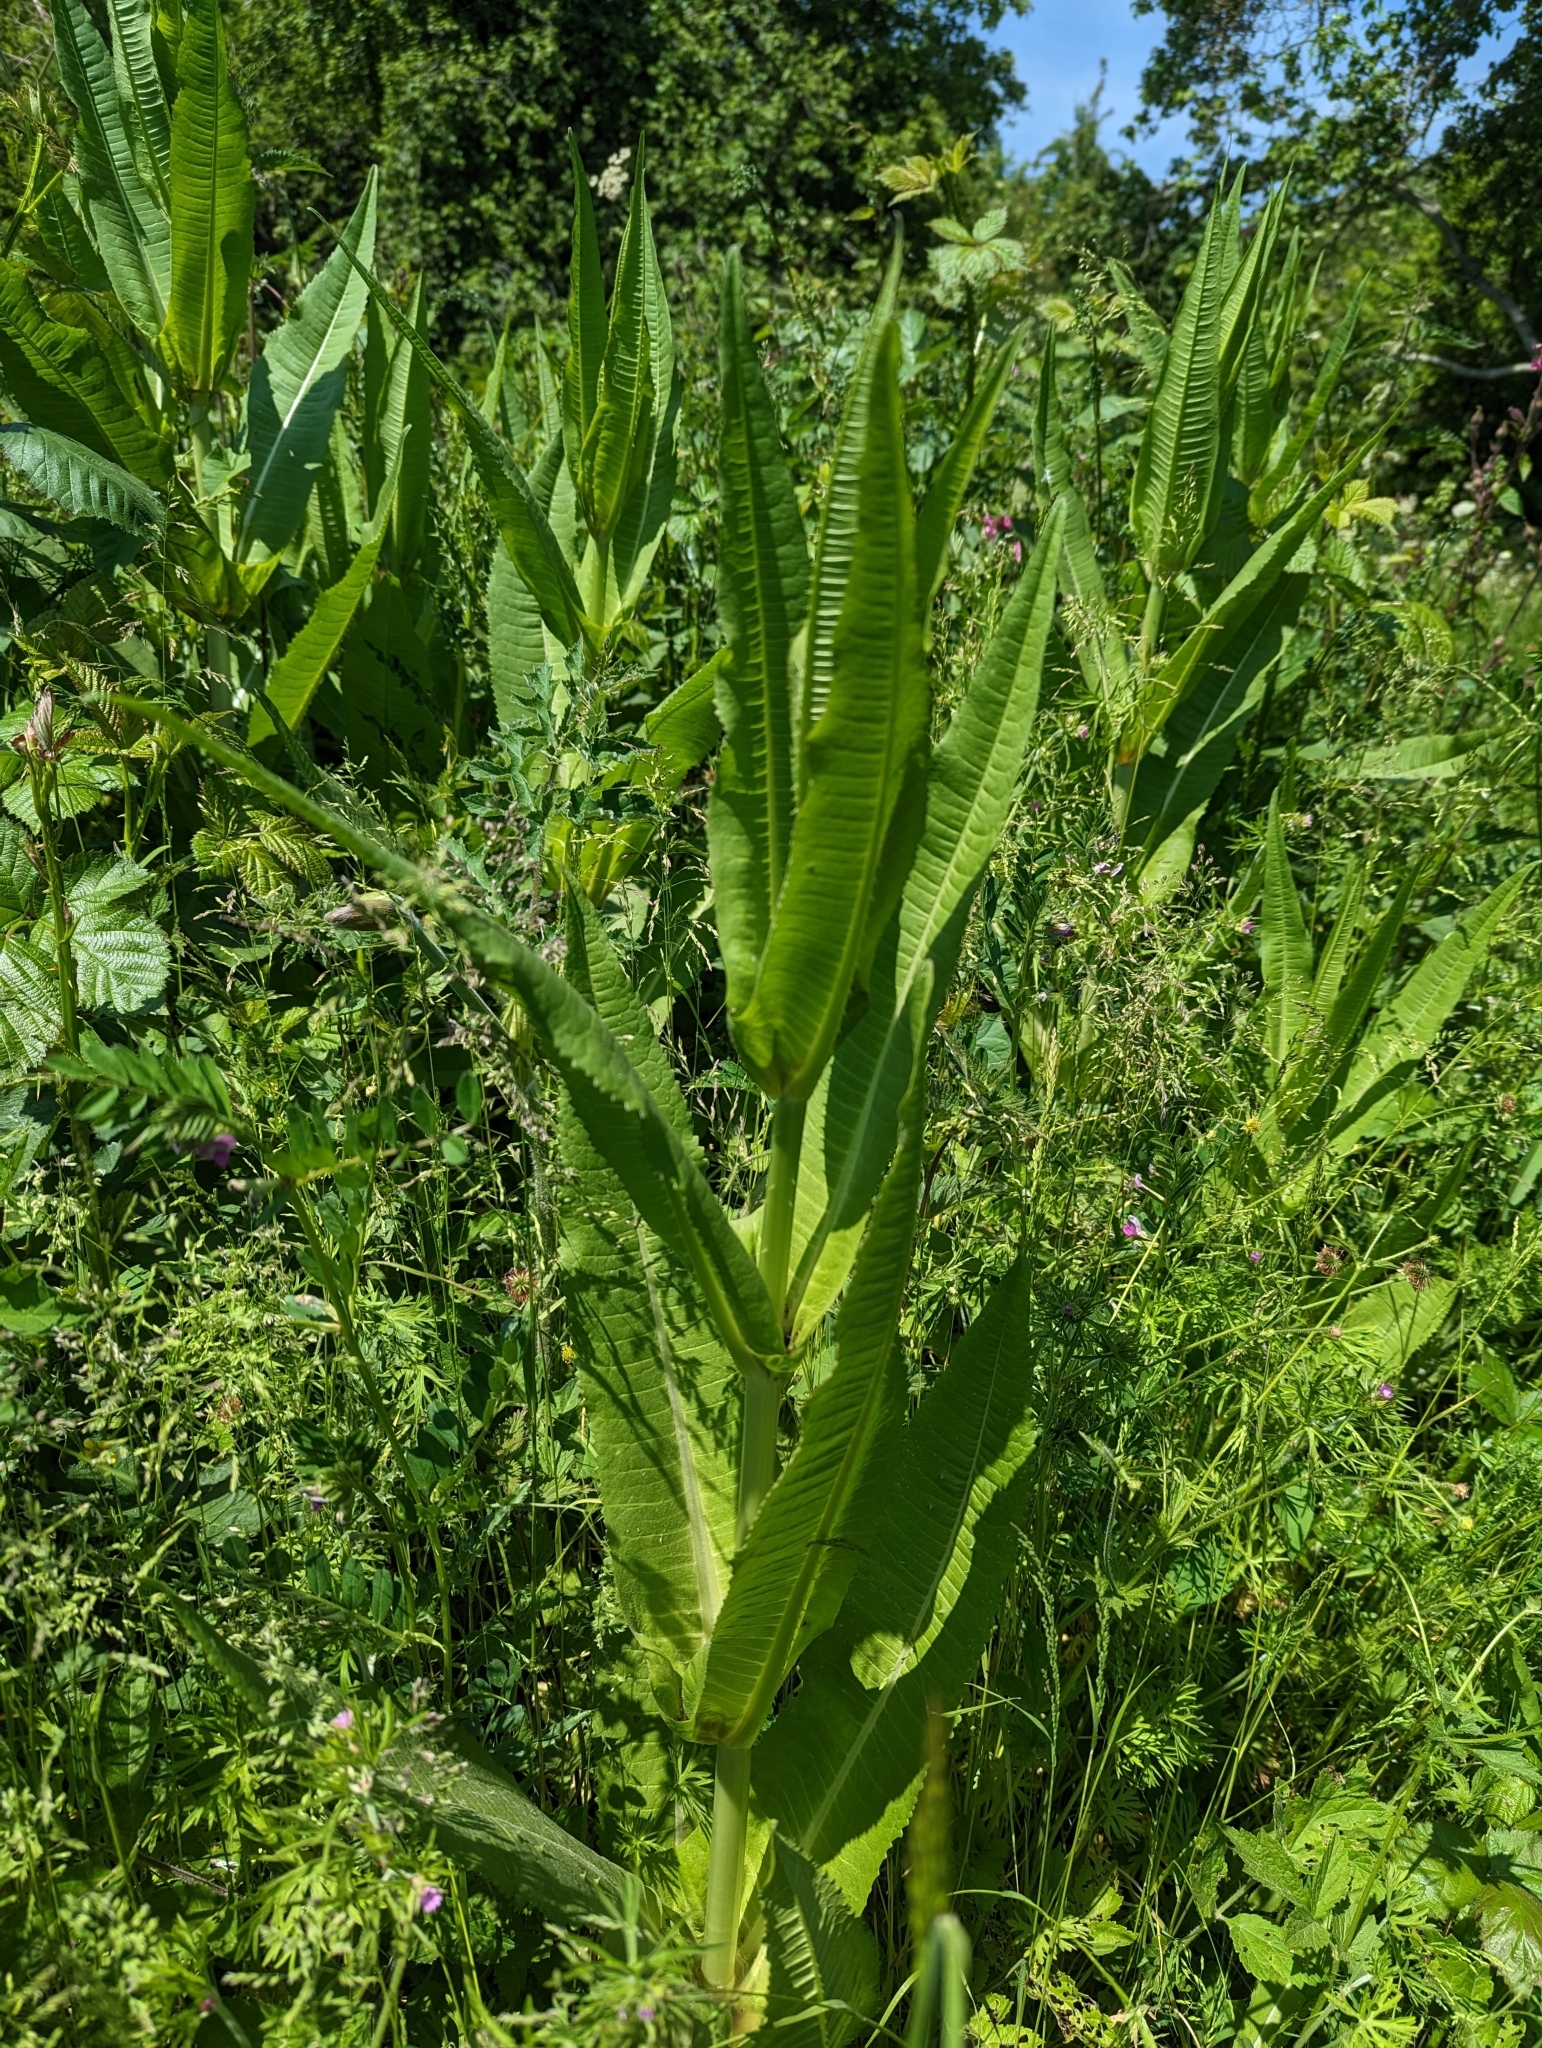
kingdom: Plantae
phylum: Tracheophyta
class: Magnoliopsida
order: Dipsacales
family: Caprifoliaceae
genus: Dipsacus
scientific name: Dipsacus fullonum
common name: Teasel
